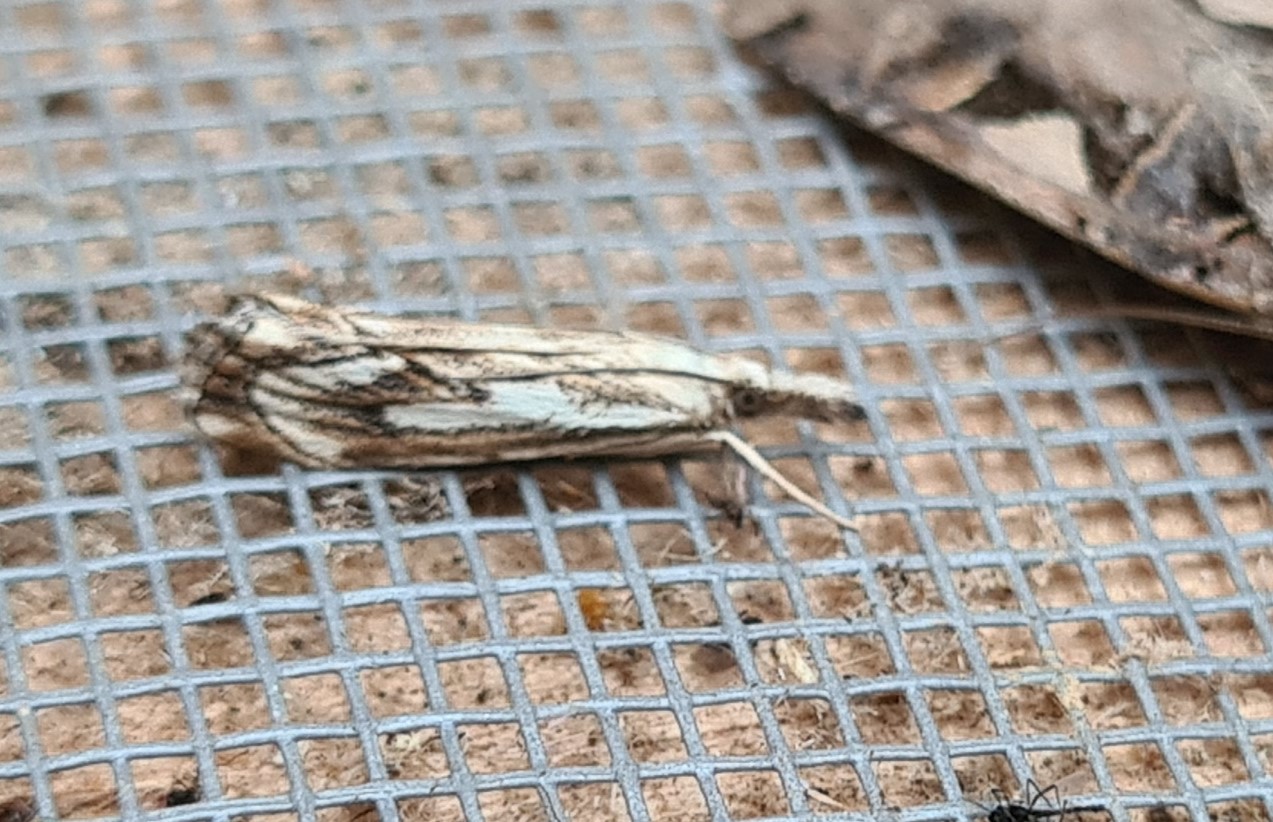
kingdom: Animalia
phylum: Arthropoda
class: Insecta
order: Lepidoptera
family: Crambidae
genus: Catoptria
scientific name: Catoptria falsella
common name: Chequered grass-veneer
